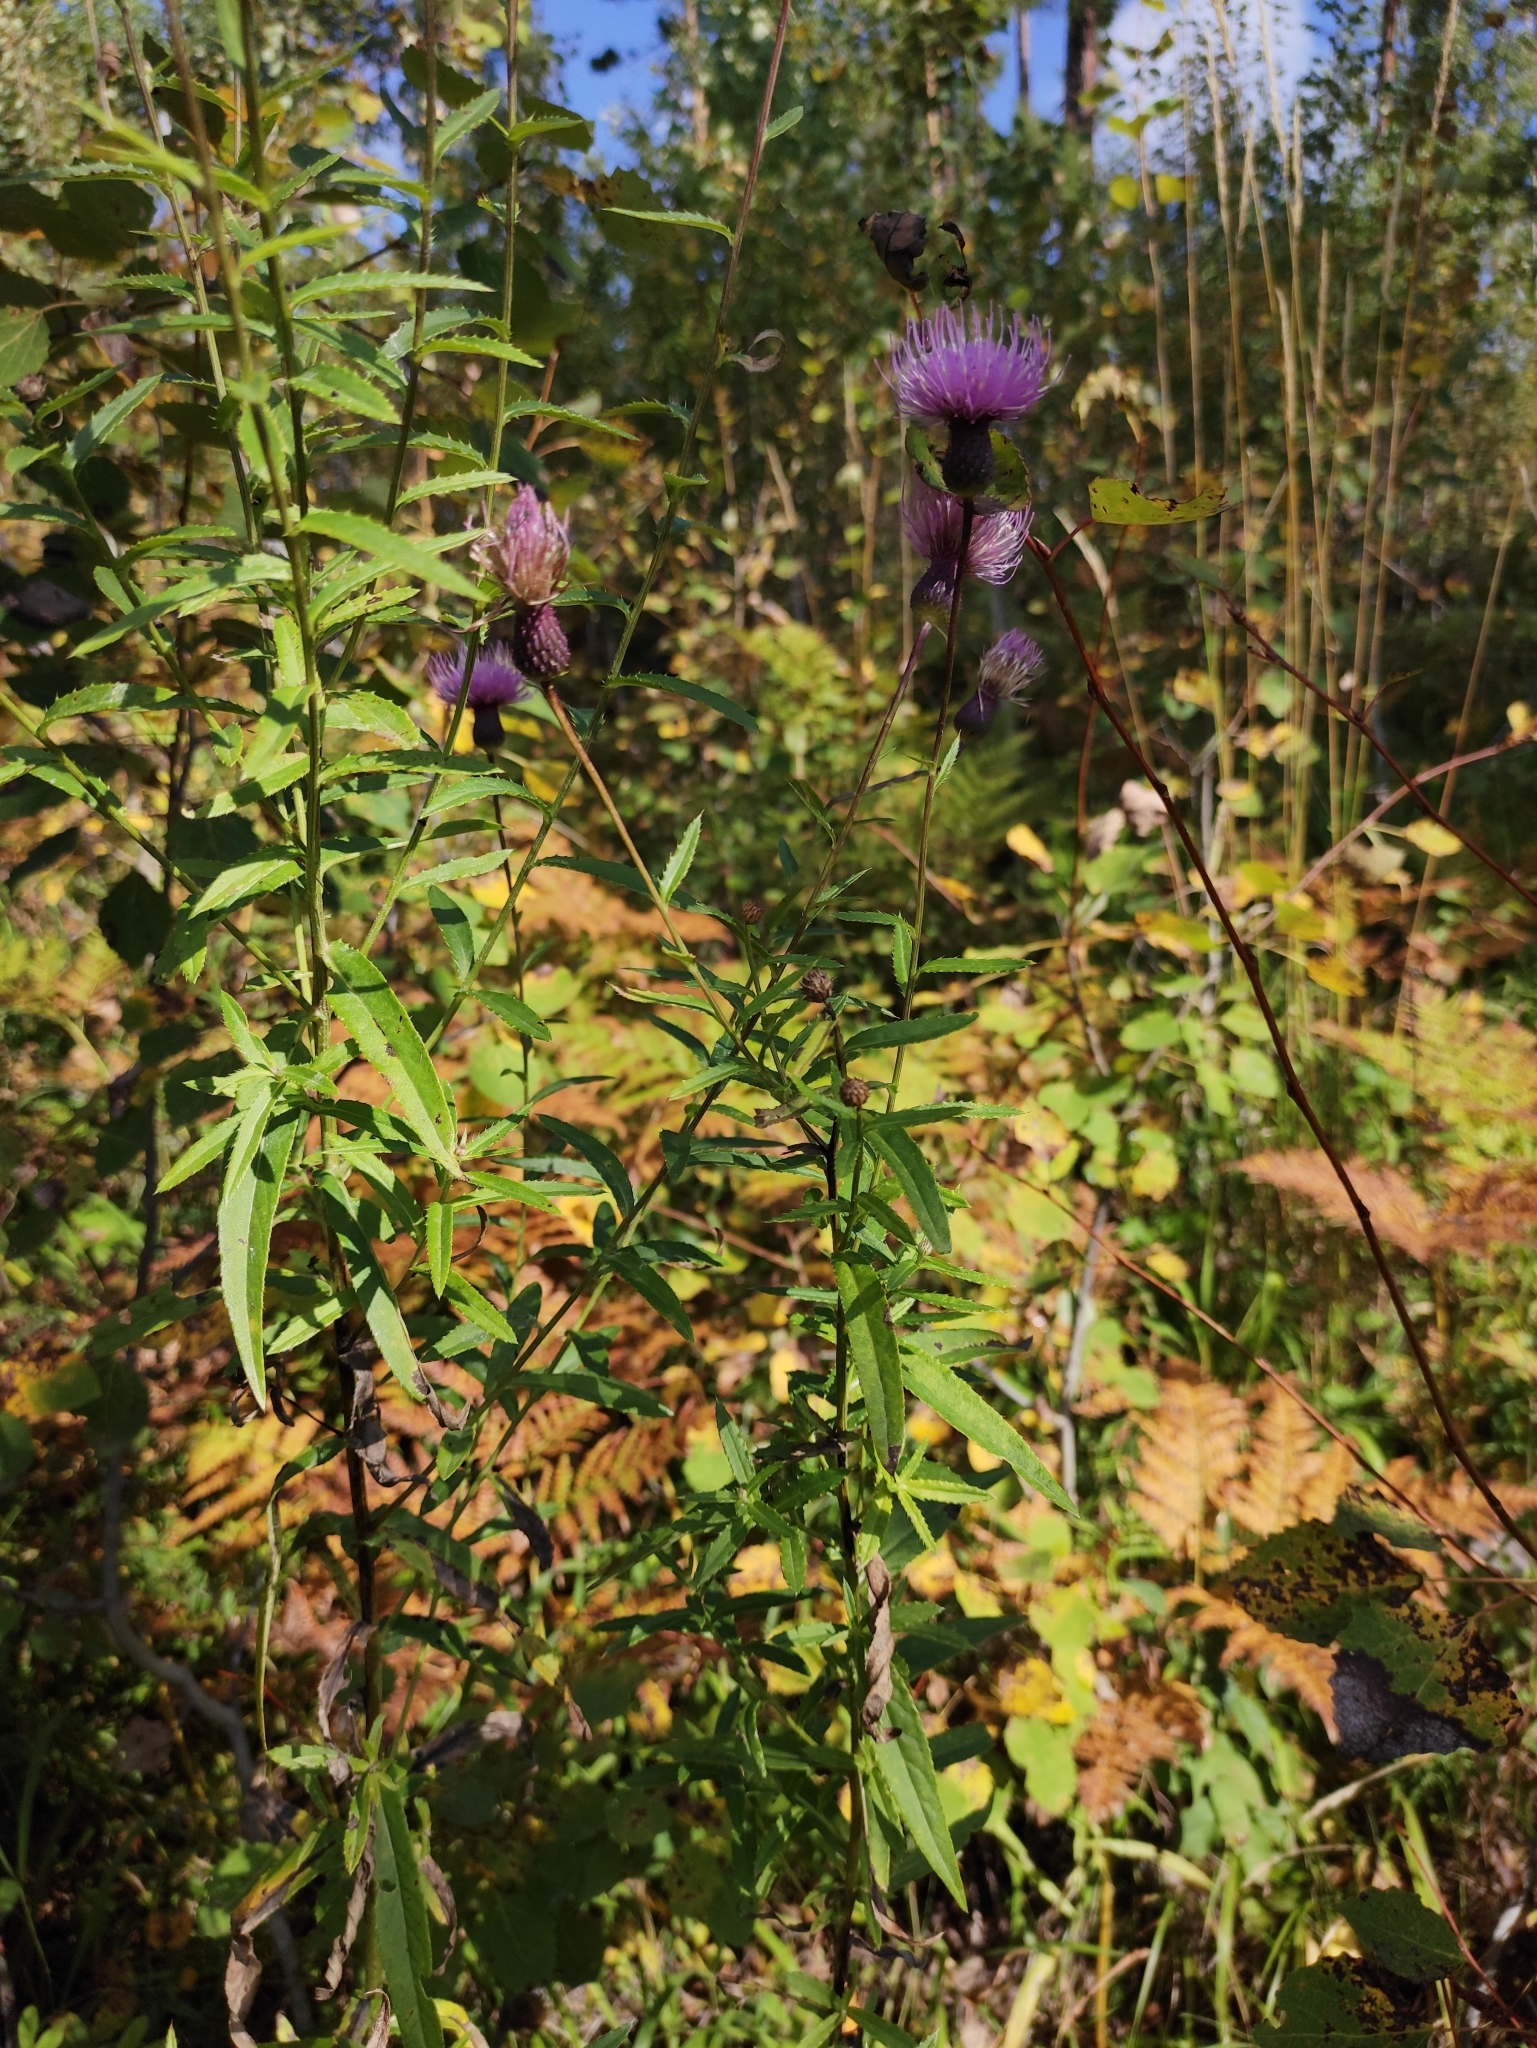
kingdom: Plantae
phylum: Tracheophyta
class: Magnoliopsida
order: Asterales
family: Asteraceae
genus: Cirsium
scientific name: Cirsium arvense
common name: Creeping thistle
